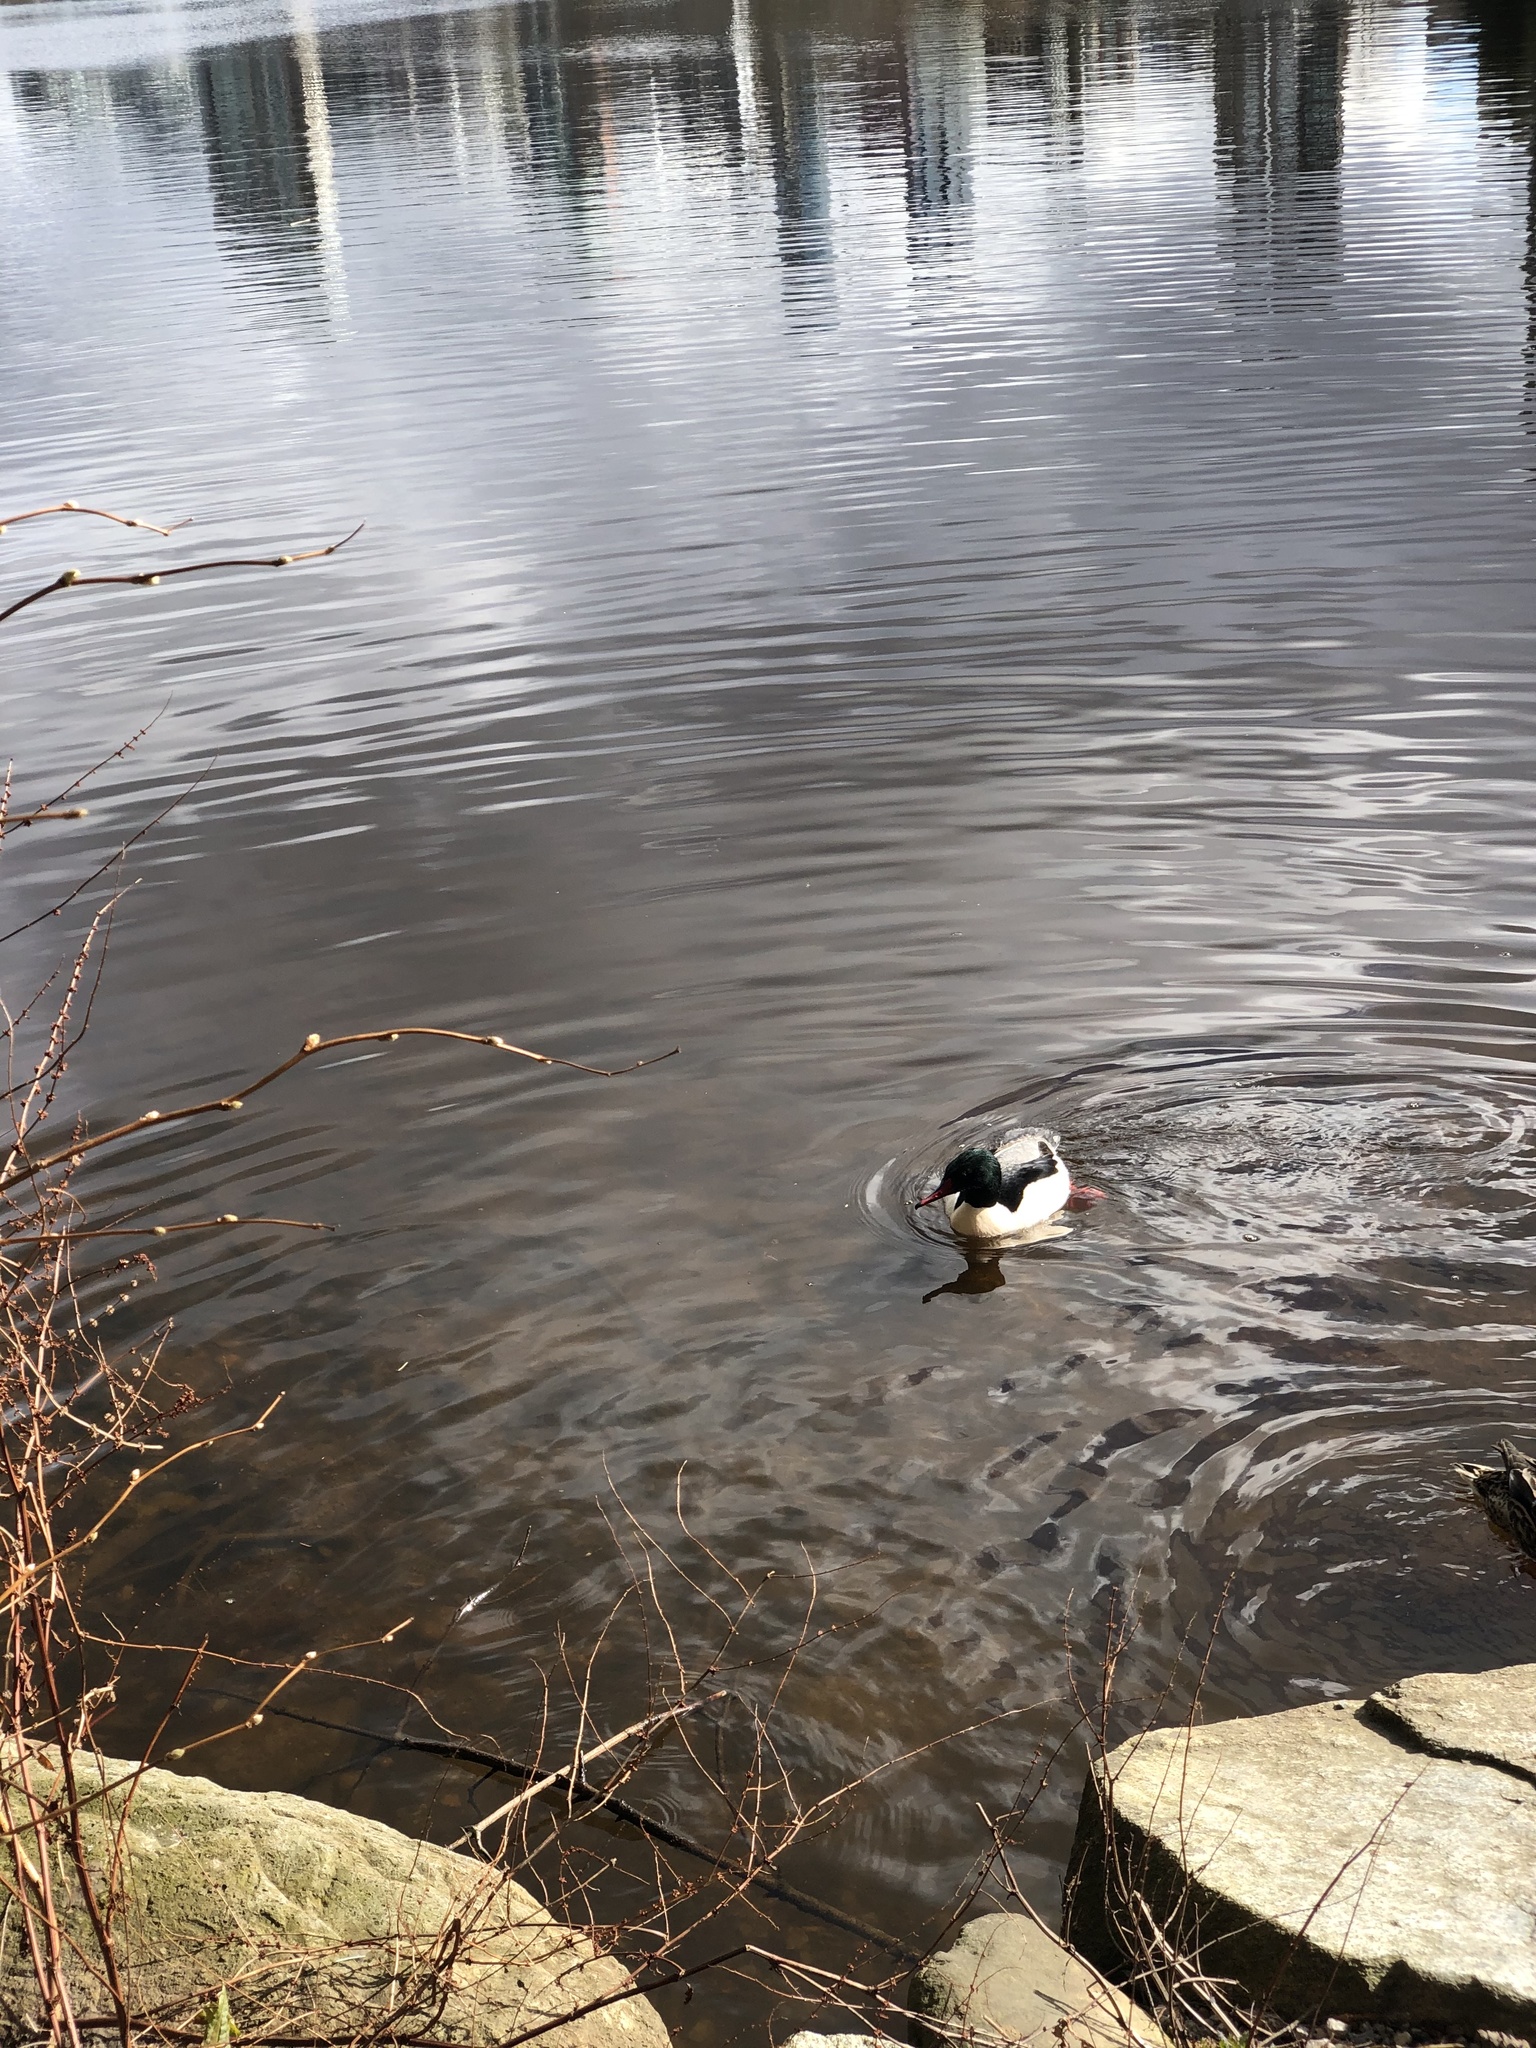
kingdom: Animalia
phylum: Chordata
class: Aves
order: Anseriformes
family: Anatidae
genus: Mergus
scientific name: Mergus merganser
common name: Common merganser
